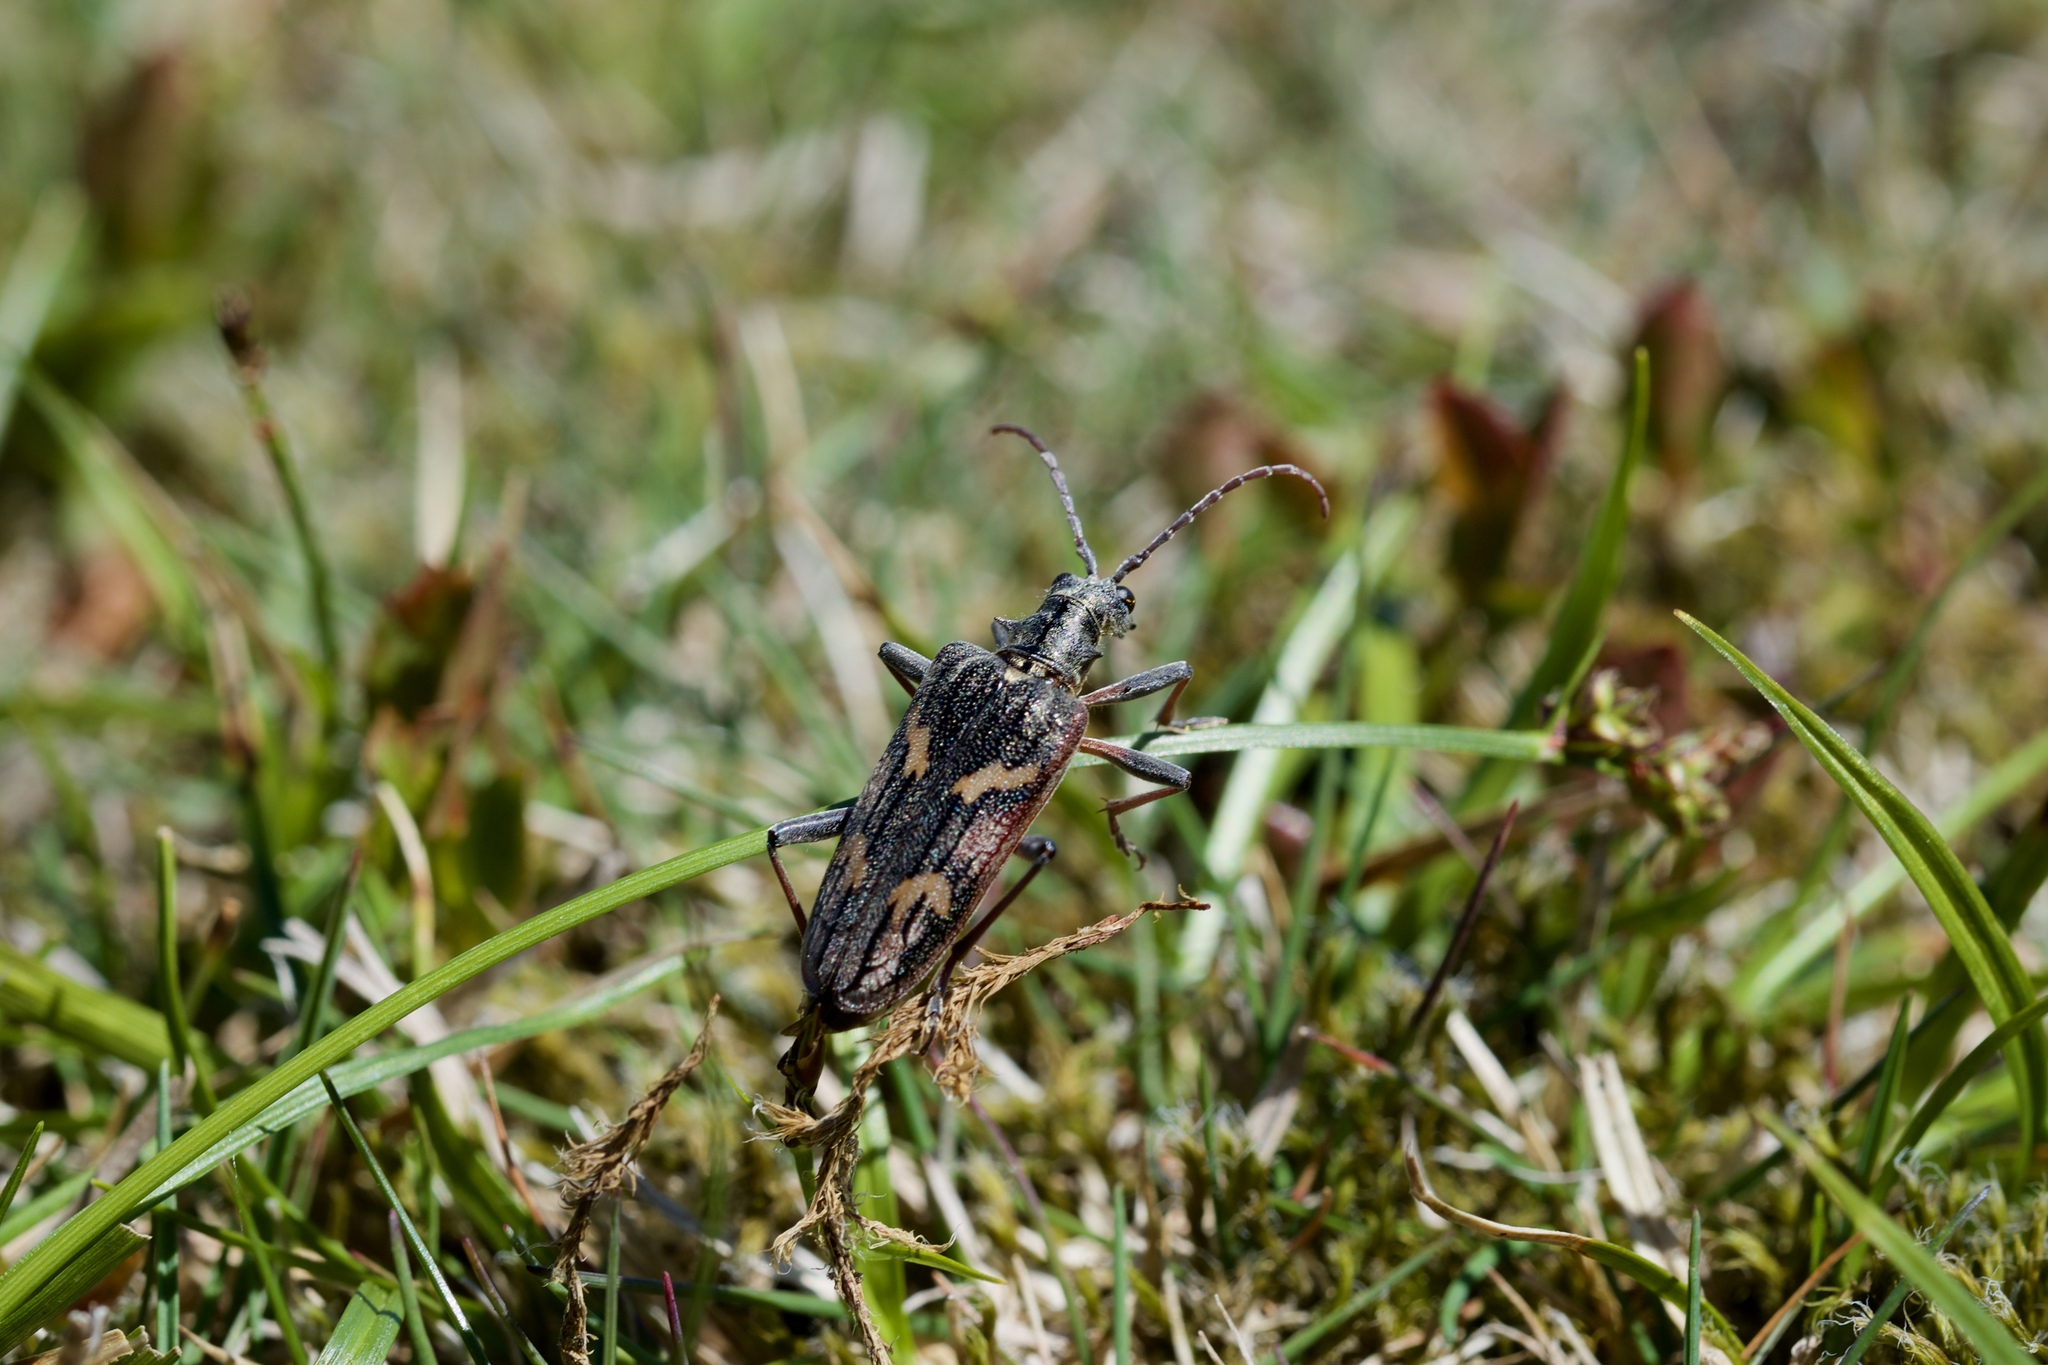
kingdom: Animalia
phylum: Arthropoda
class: Insecta
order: Coleoptera
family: Cerambycidae
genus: Rhagium
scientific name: Rhagium bifasciatum
